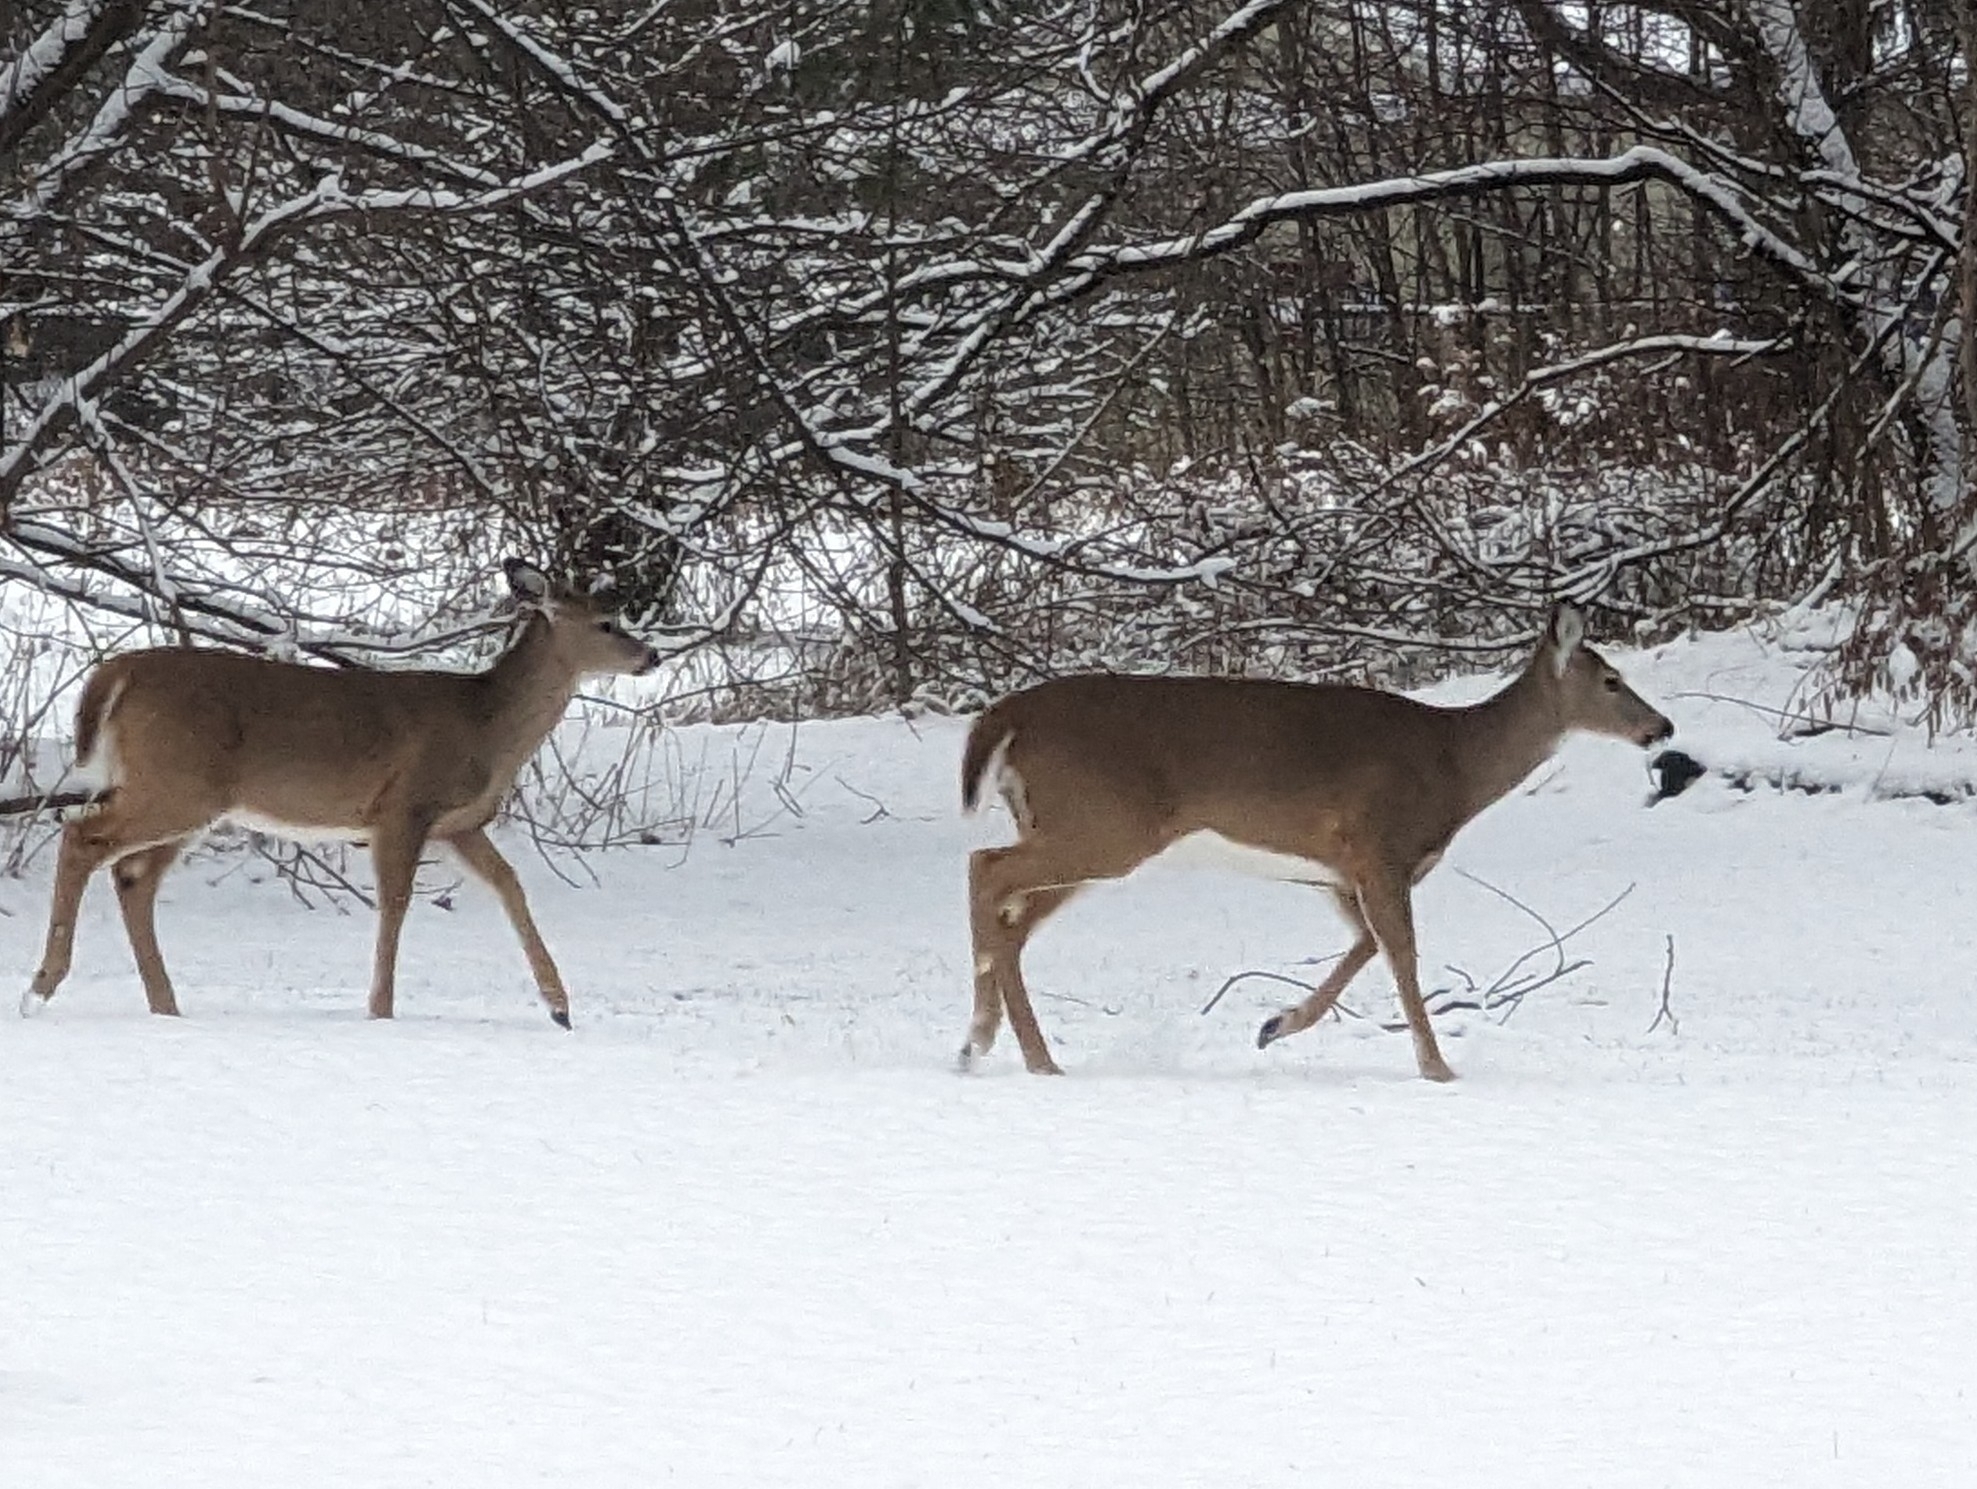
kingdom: Animalia
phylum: Chordata
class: Mammalia
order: Artiodactyla
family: Cervidae
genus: Odocoileus
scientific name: Odocoileus virginianus
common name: White-tailed deer
